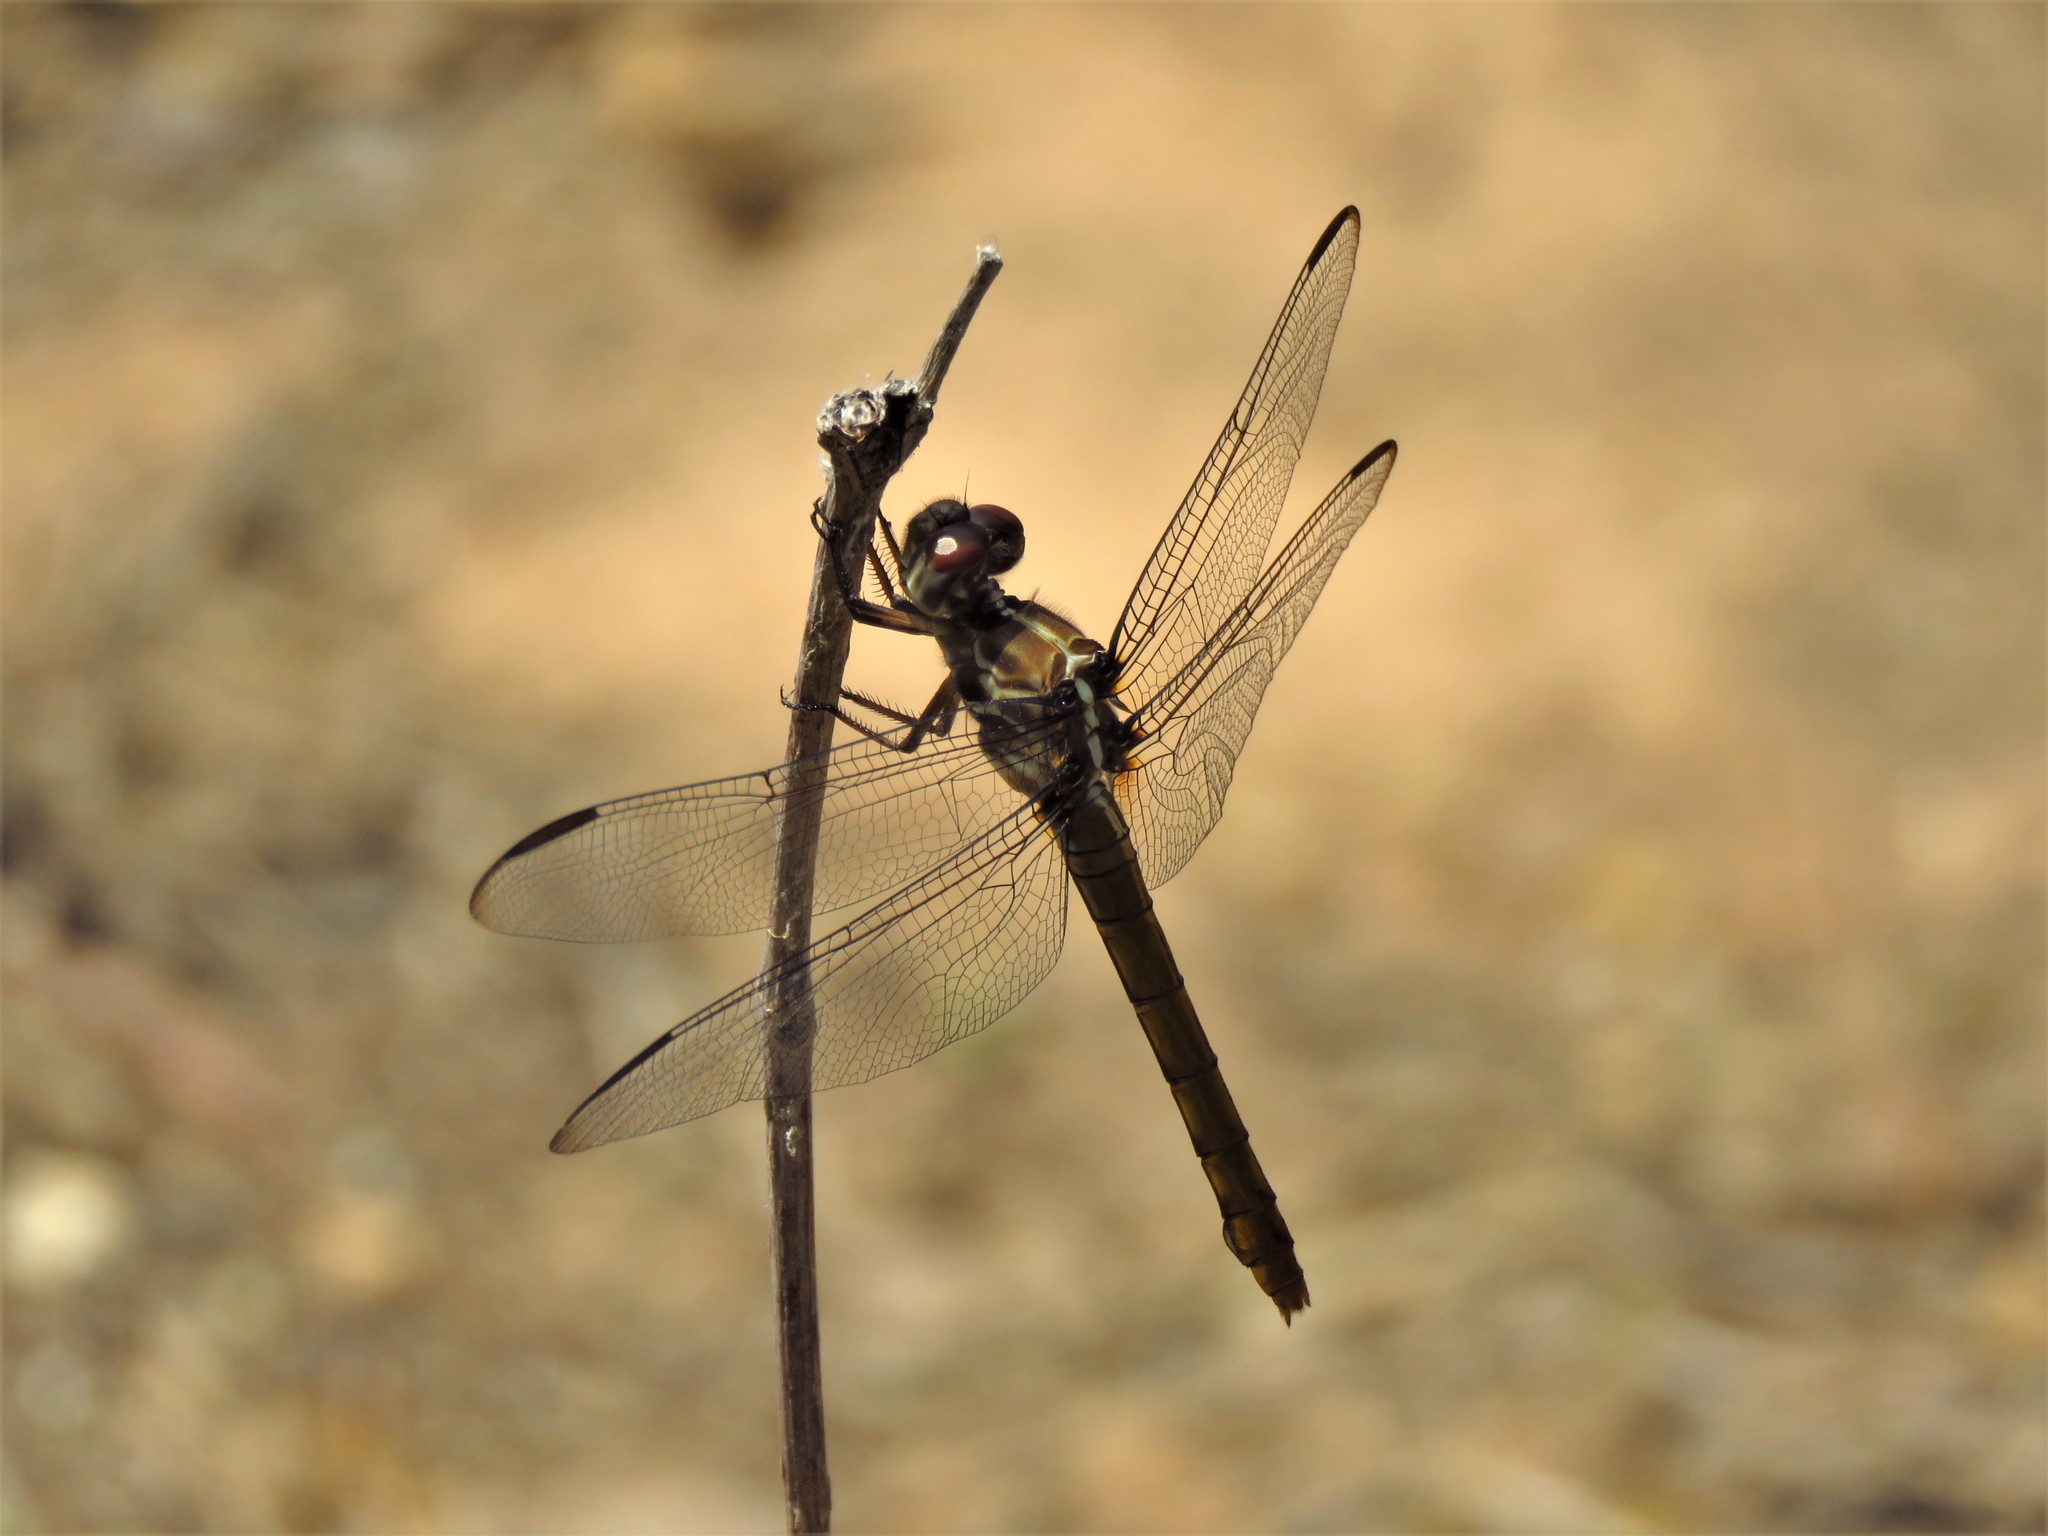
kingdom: Animalia
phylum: Arthropoda
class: Insecta
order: Odonata
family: Libellulidae
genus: Orthemis
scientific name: Orthemis ferruginea
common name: Roseate skimmer
